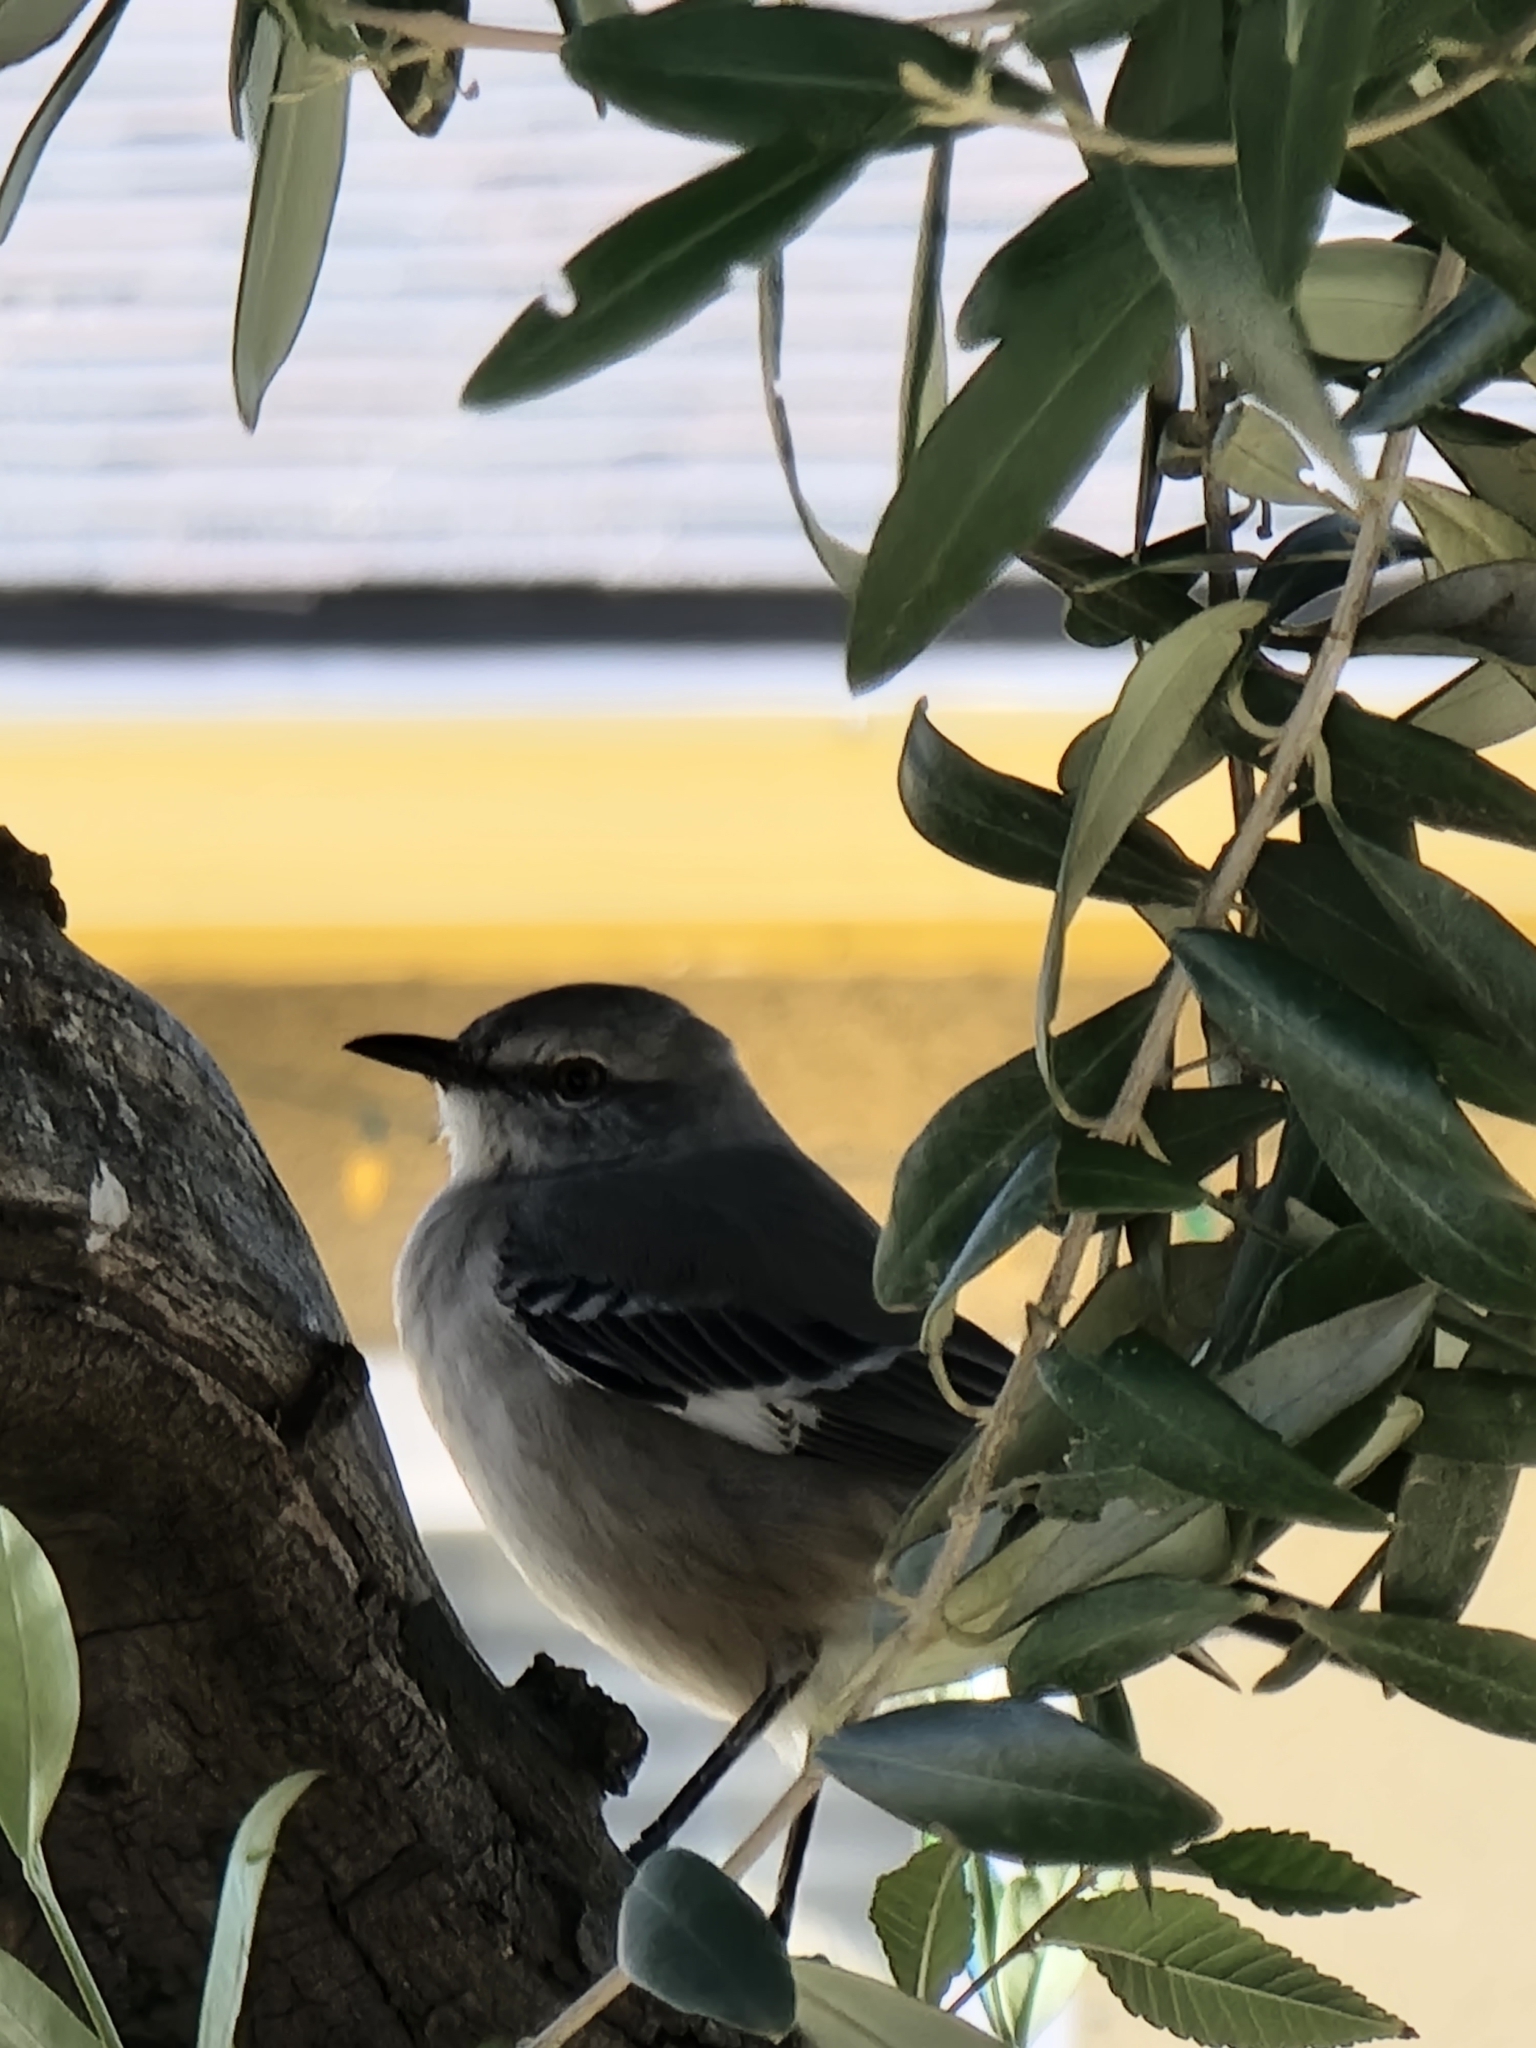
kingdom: Animalia
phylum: Chordata
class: Aves
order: Passeriformes
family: Mimidae
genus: Mimus
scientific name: Mimus polyglottos
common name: Northern mockingbird
